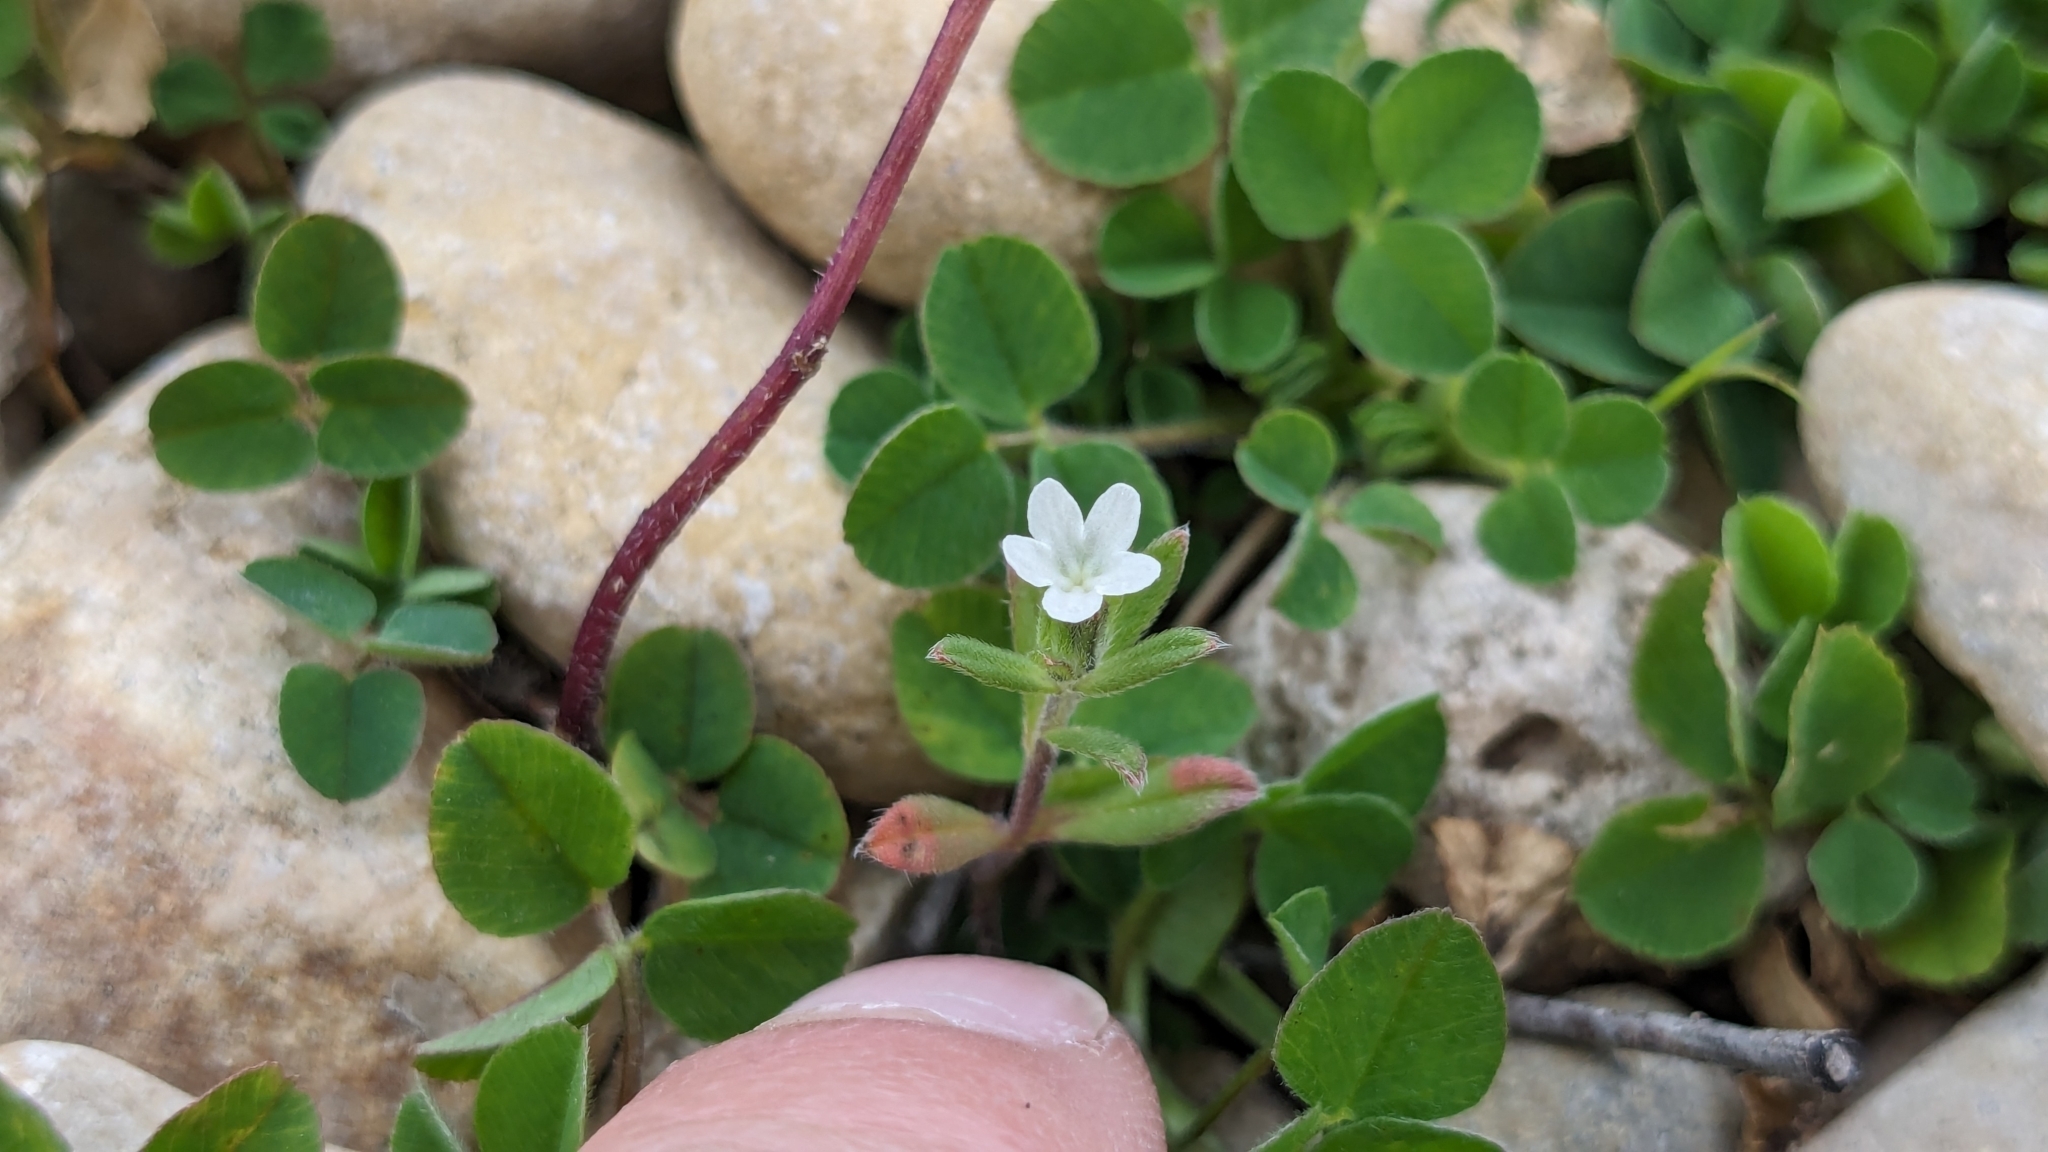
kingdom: Plantae
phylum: Tracheophyta
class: Magnoliopsida
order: Boraginales
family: Boraginaceae
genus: Buglossoides
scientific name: Buglossoides arvensis
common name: Corn gromwell
